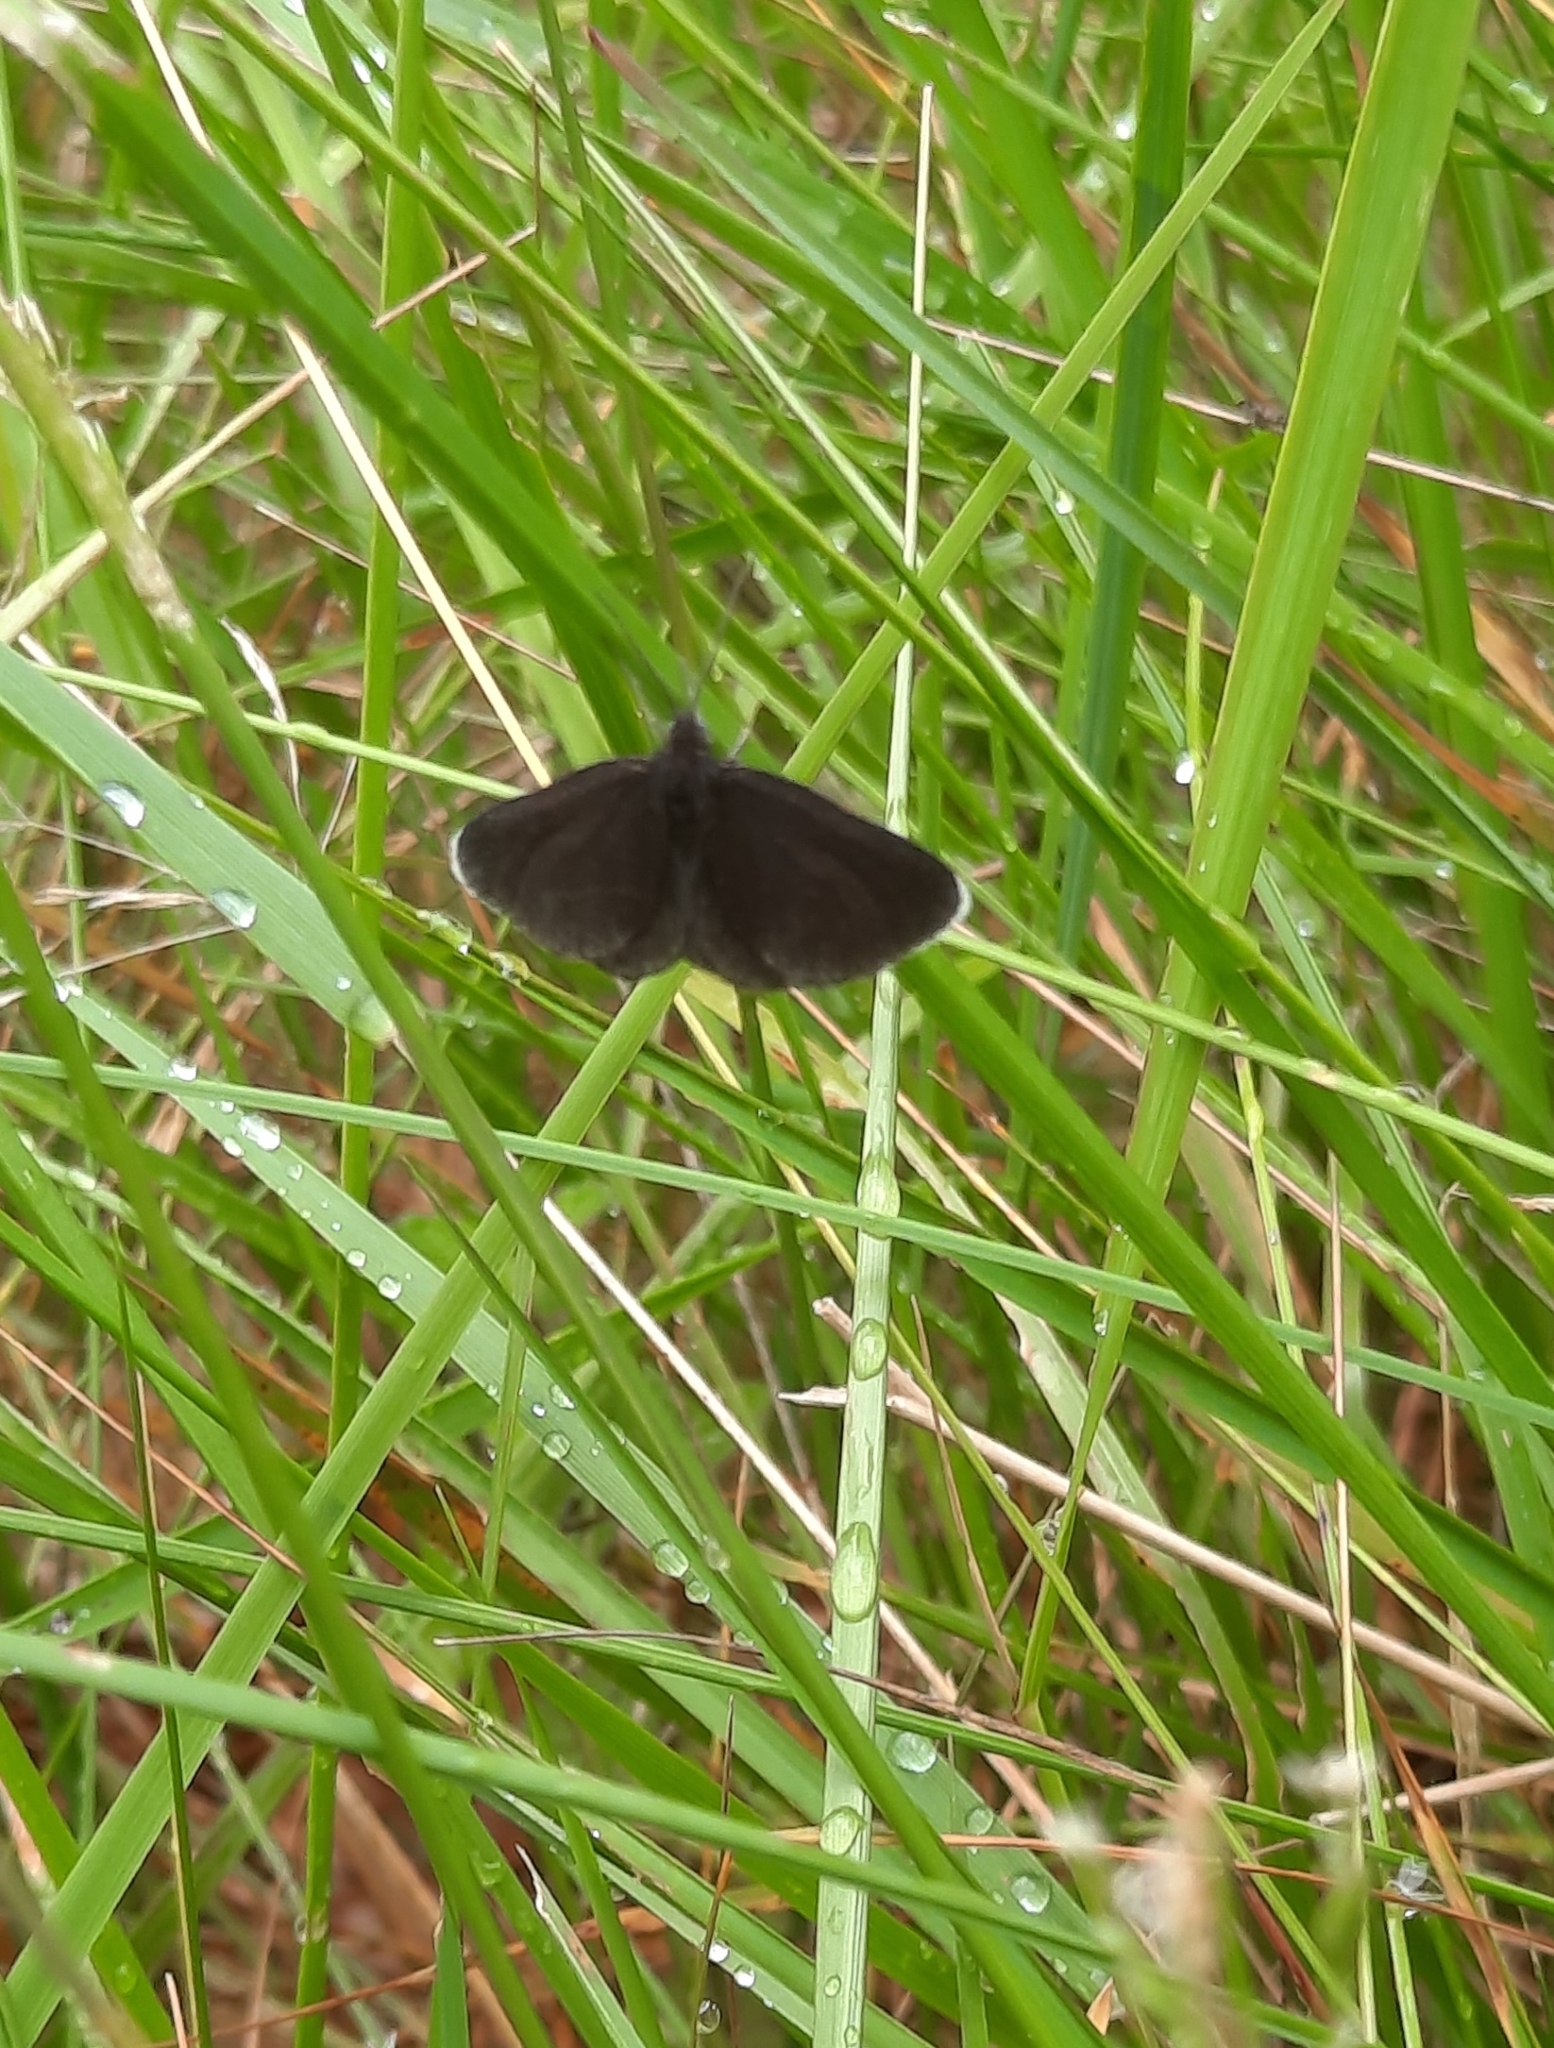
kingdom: Animalia
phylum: Arthropoda
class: Insecta
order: Lepidoptera
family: Geometridae
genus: Odezia
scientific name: Odezia atrata
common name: Chimney sweeper
